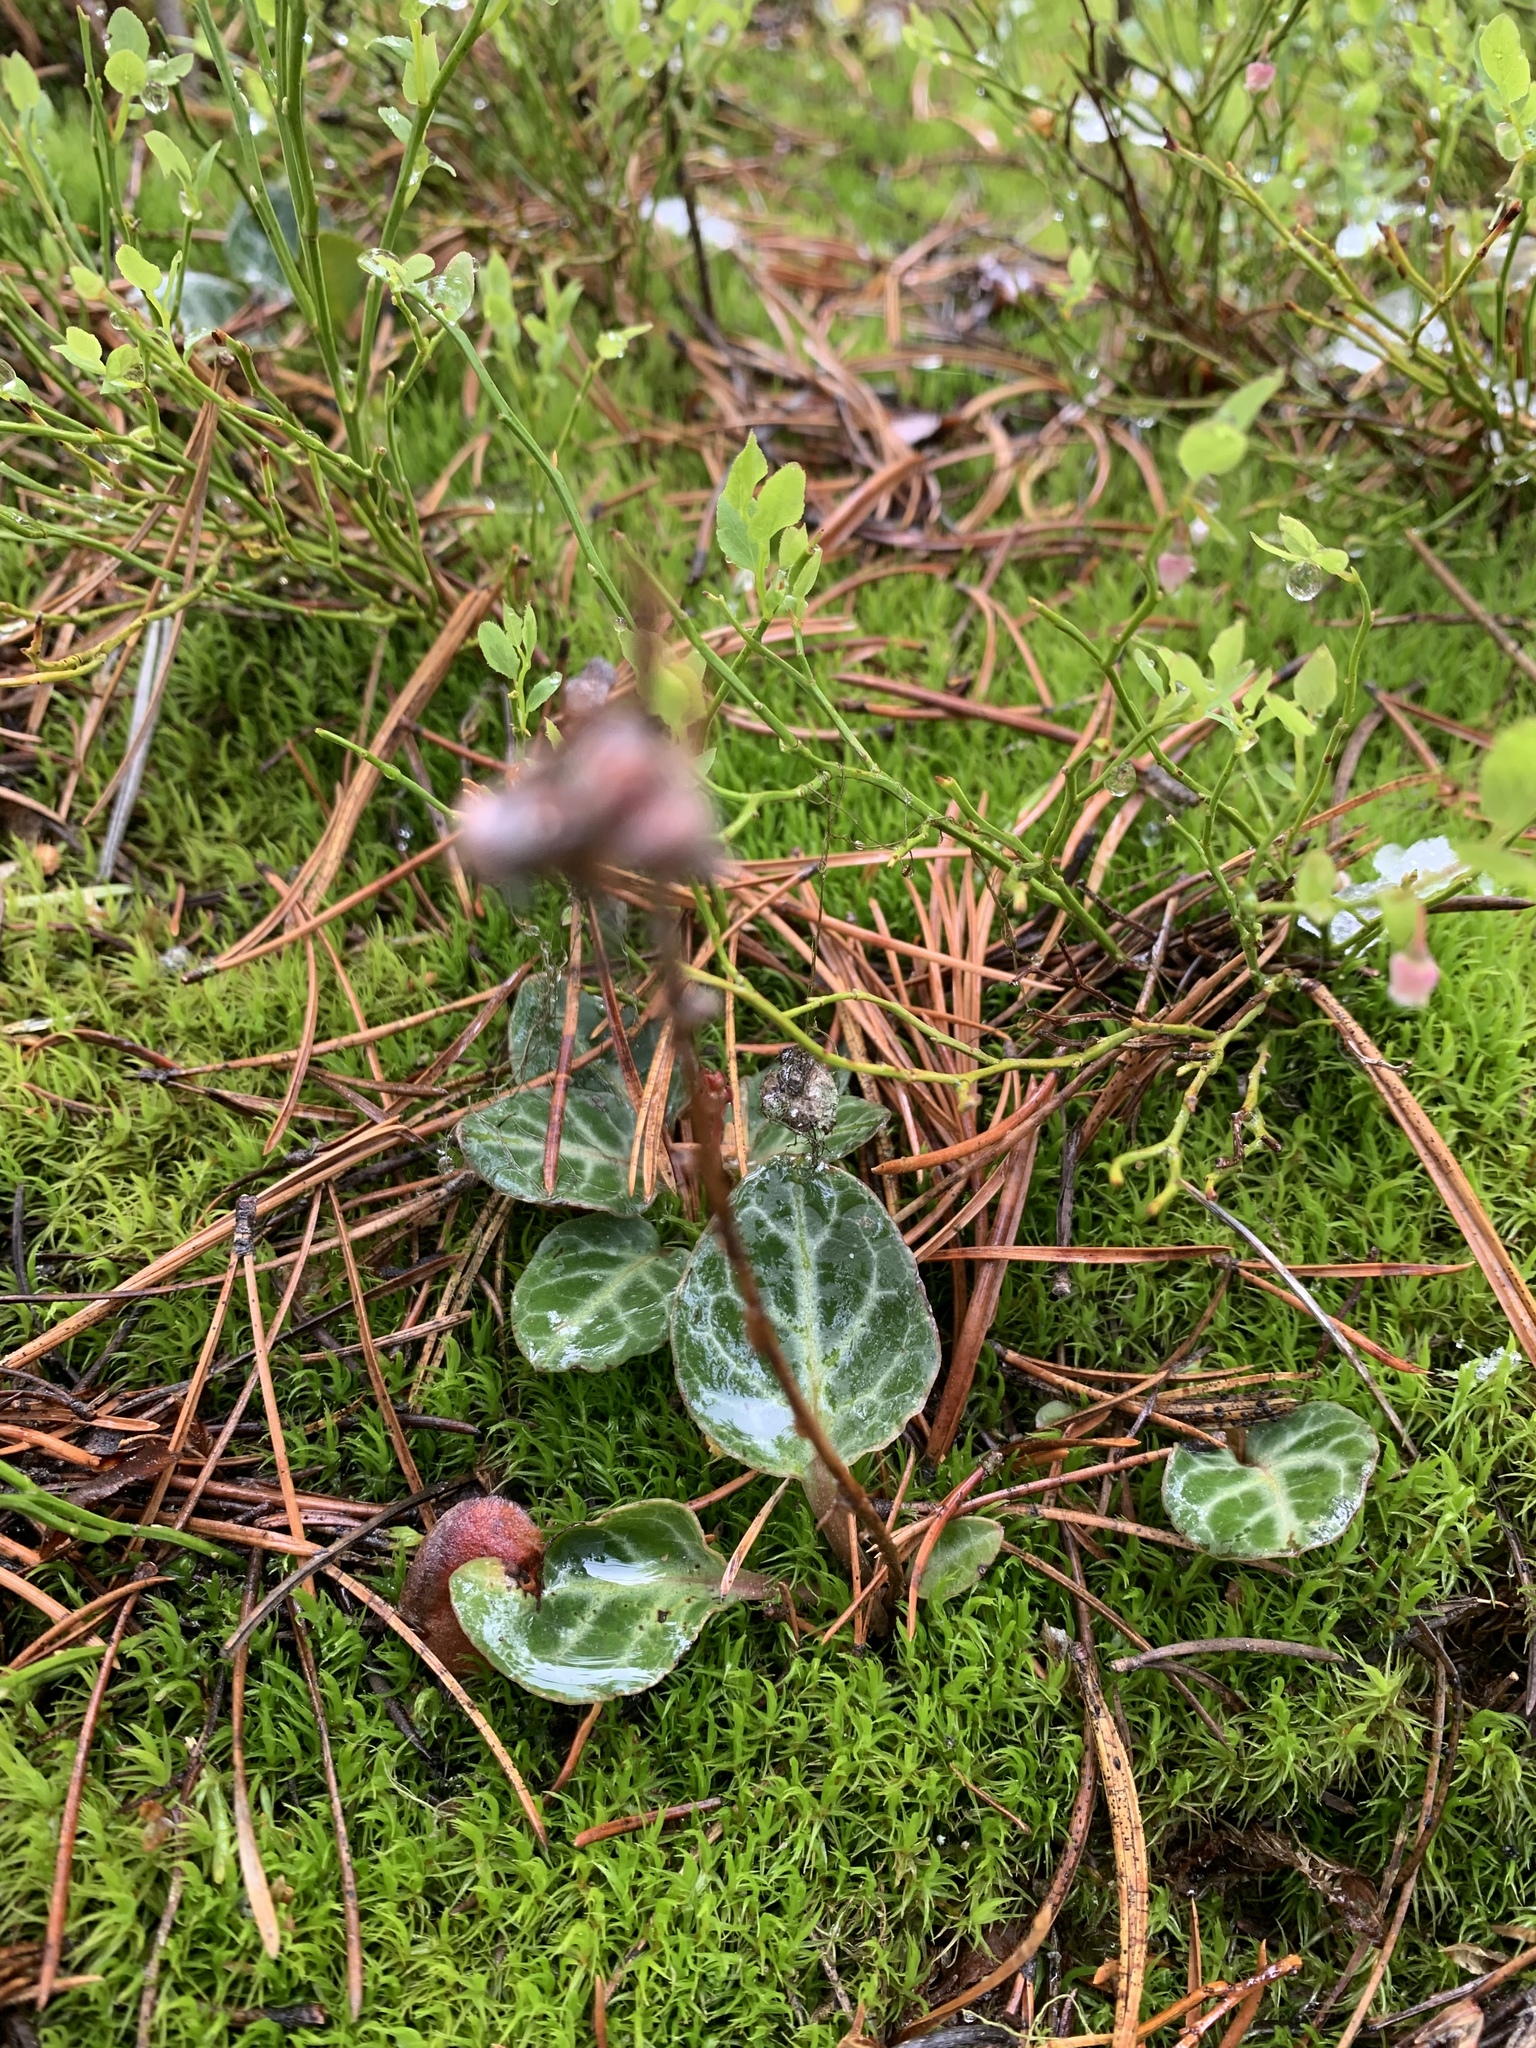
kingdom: Plantae
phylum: Tracheophyta
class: Magnoliopsida
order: Ericales
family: Ericaceae
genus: Pyrola
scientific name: Pyrola picta
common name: White-vein wintergreen
